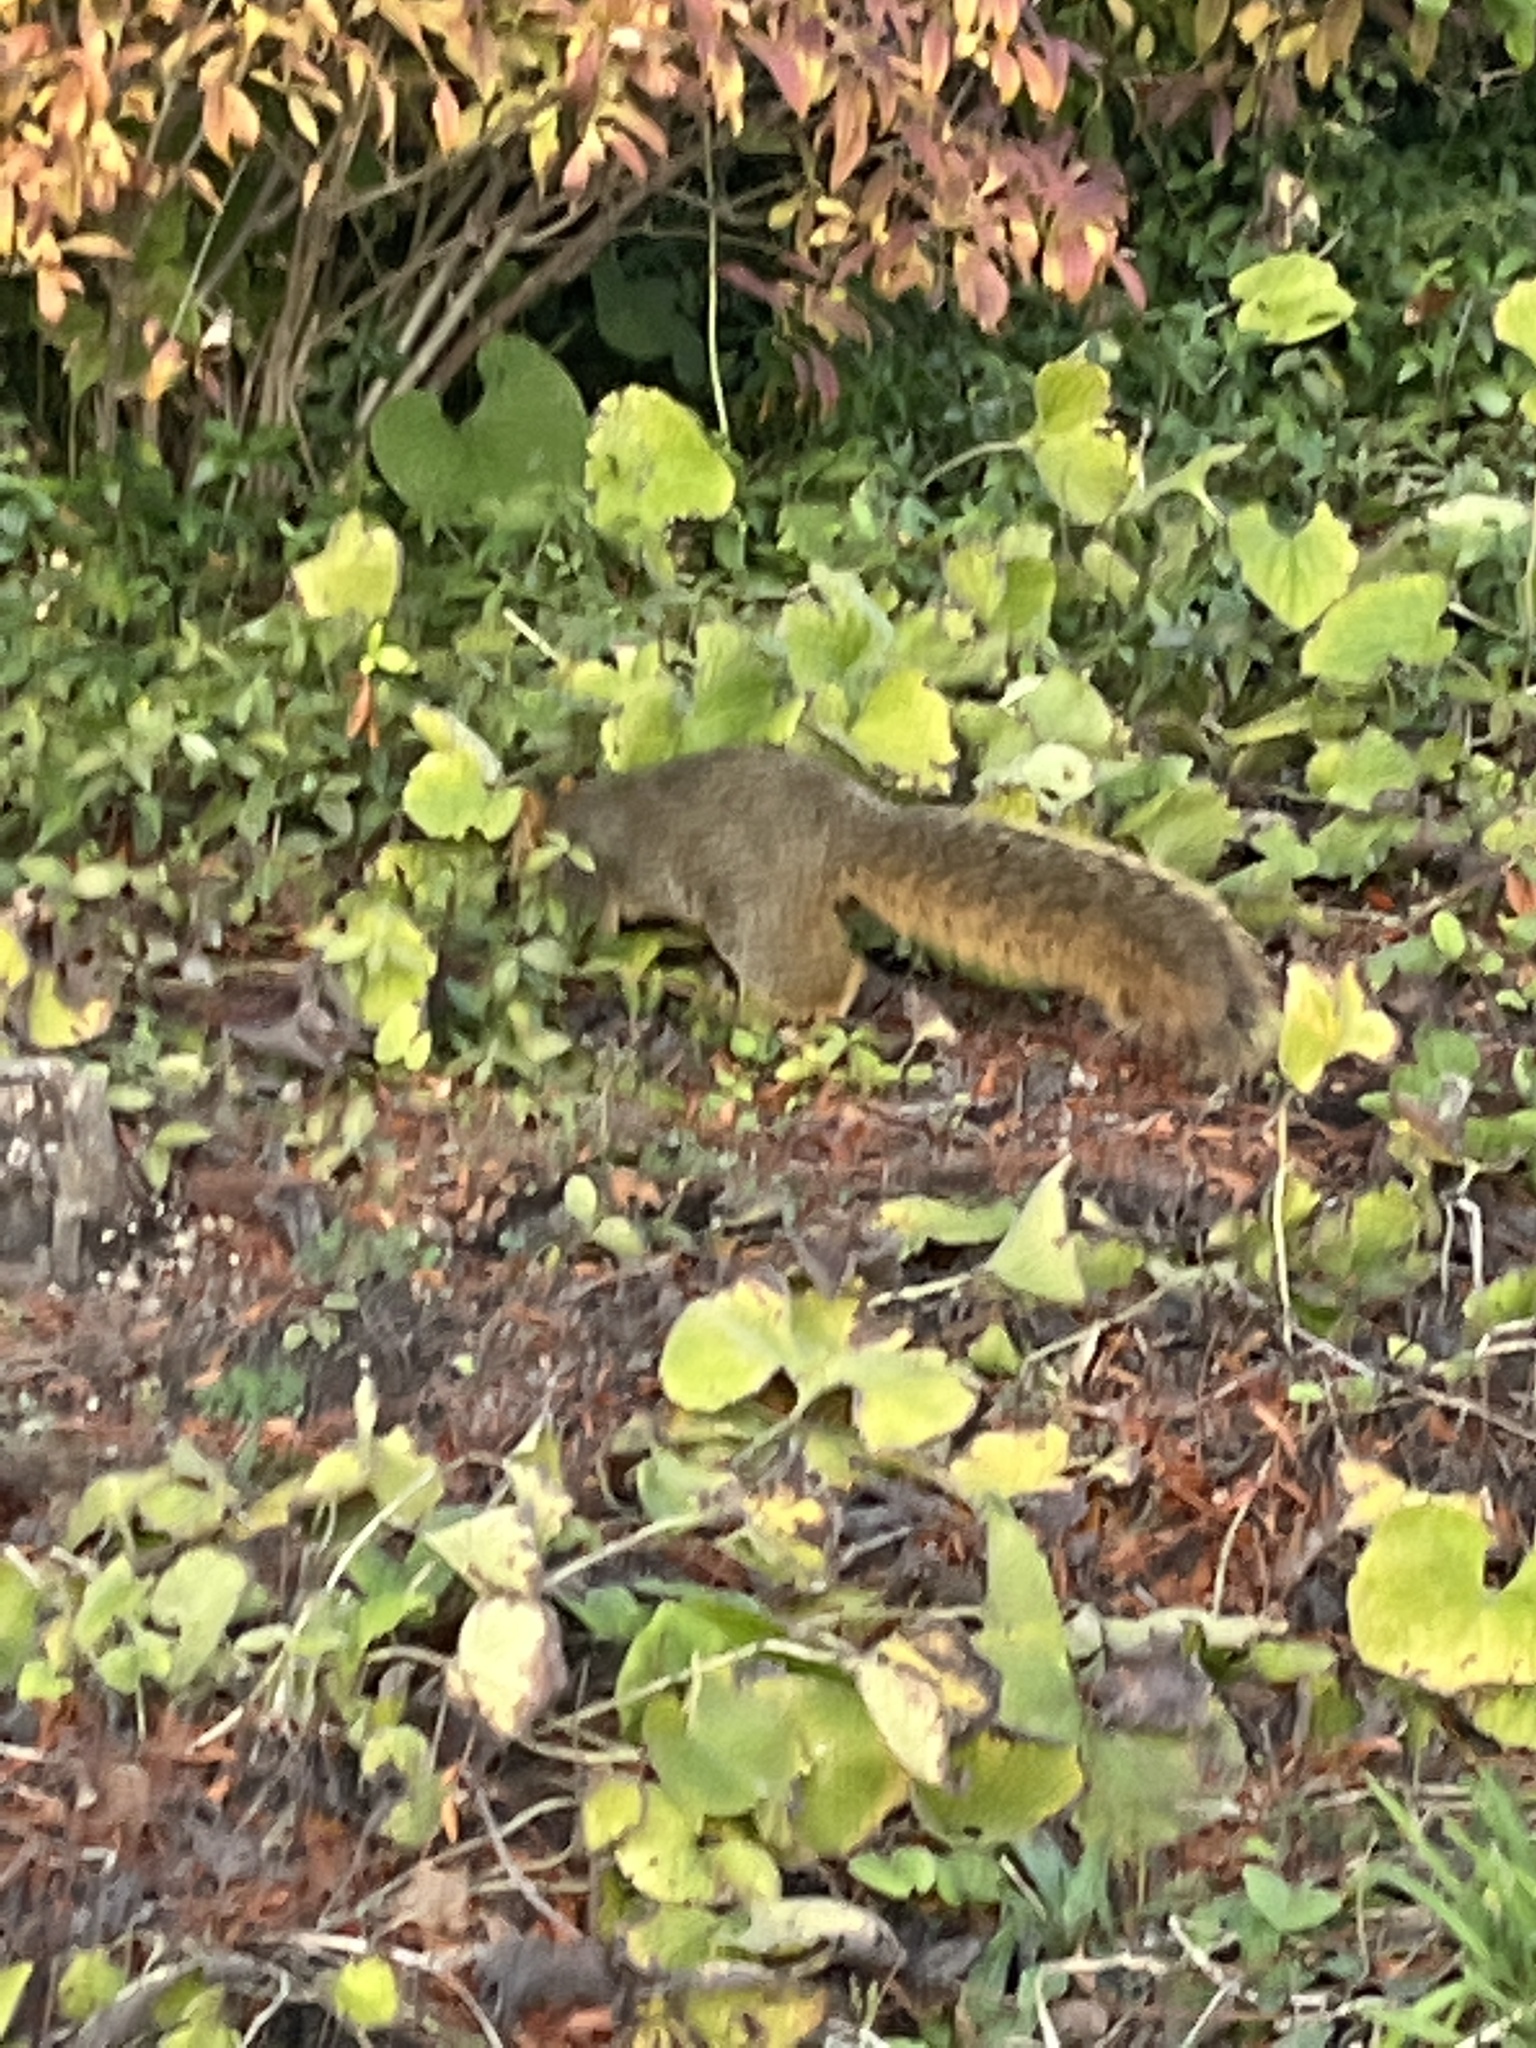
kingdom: Animalia
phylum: Chordata
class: Mammalia
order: Rodentia
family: Sciuridae
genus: Sciurus
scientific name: Sciurus niger
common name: Fox squirrel
